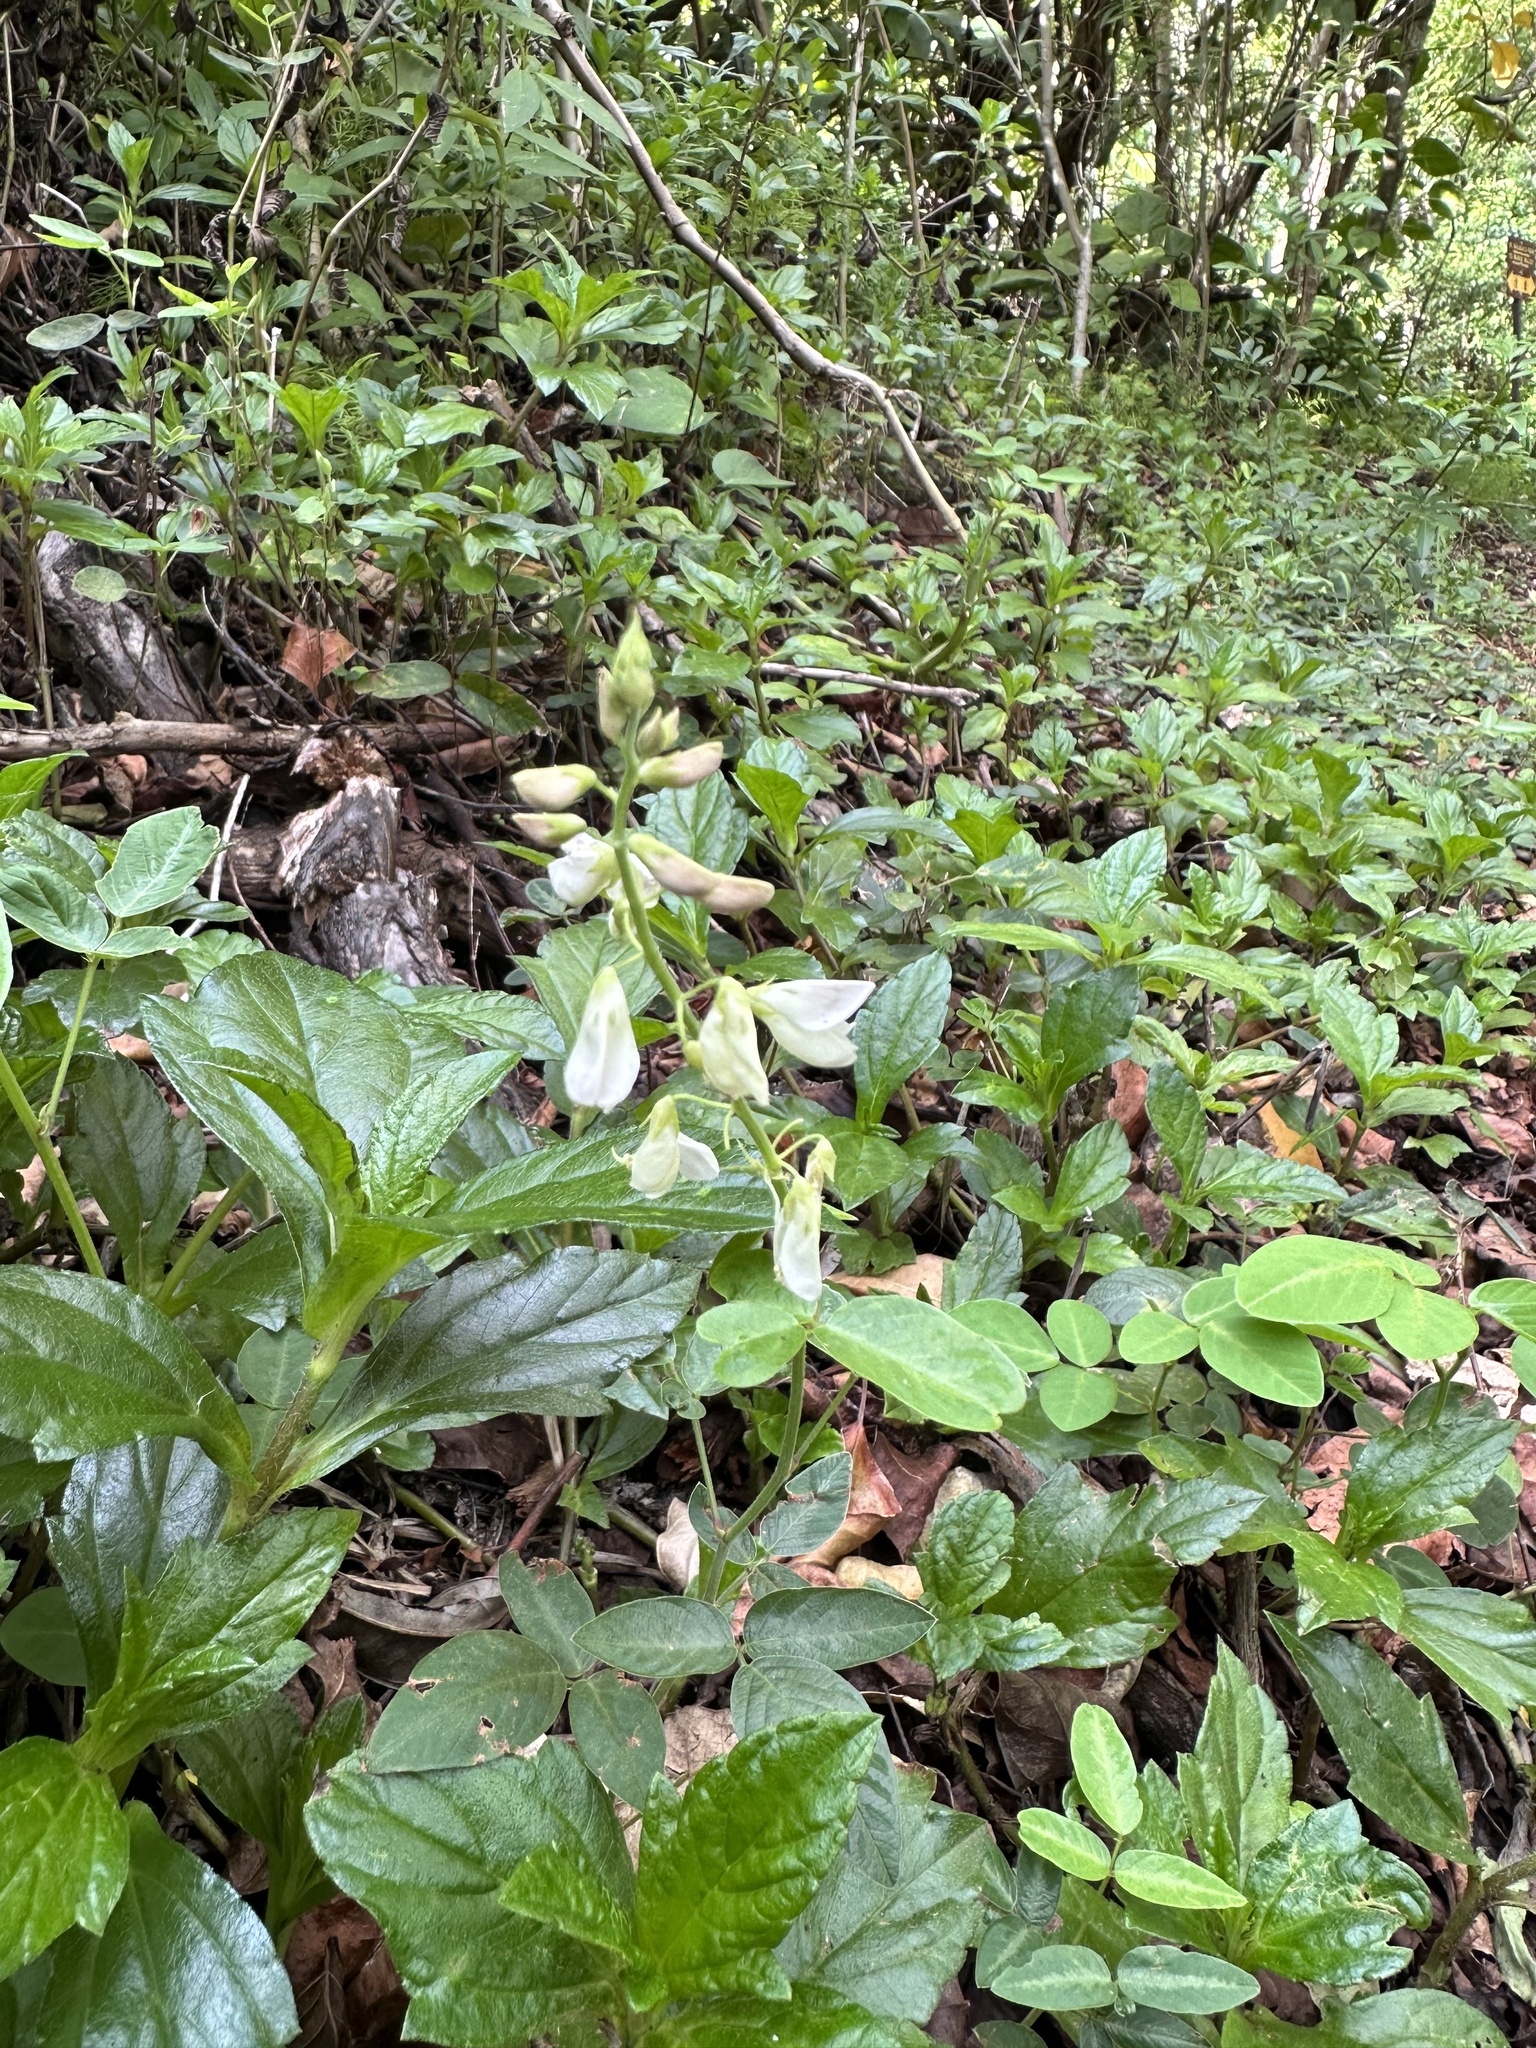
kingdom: Plantae
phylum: Tracheophyta
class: Magnoliopsida
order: Fabales
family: Fabaceae
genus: Desmodium
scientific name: Desmodium incanum
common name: Tickclover
